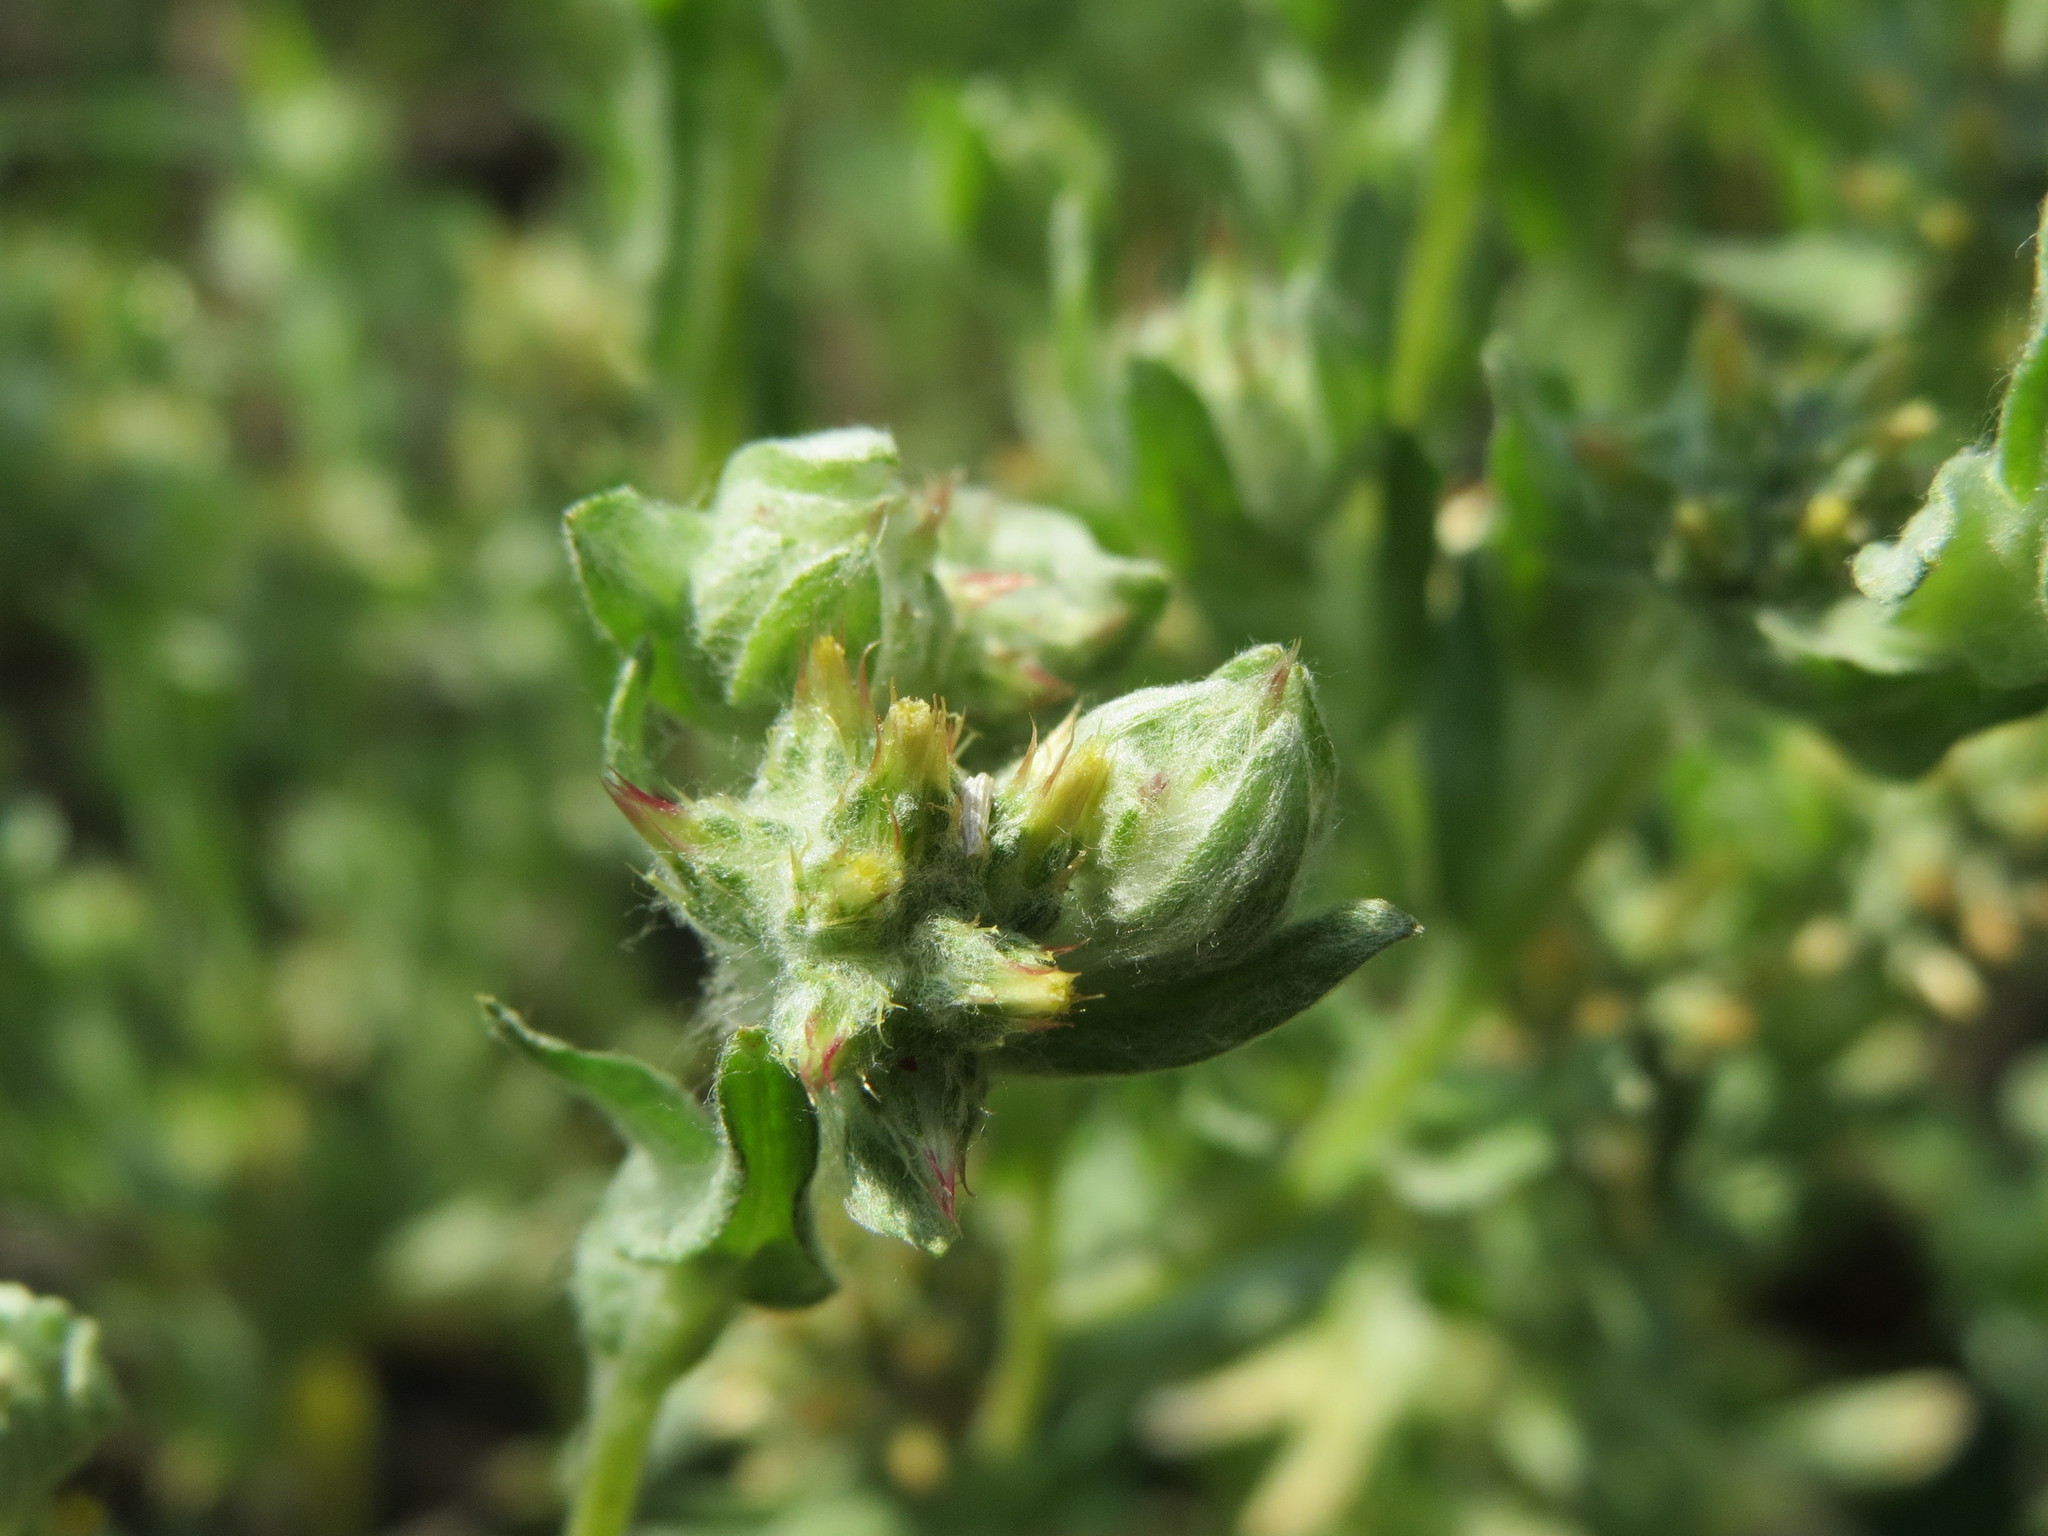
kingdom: Plantae
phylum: Tracheophyta
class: Magnoliopsida
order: Asterales
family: Asteraceae
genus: Filago
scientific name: Filago lutescens
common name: Red-tipped cudweed
